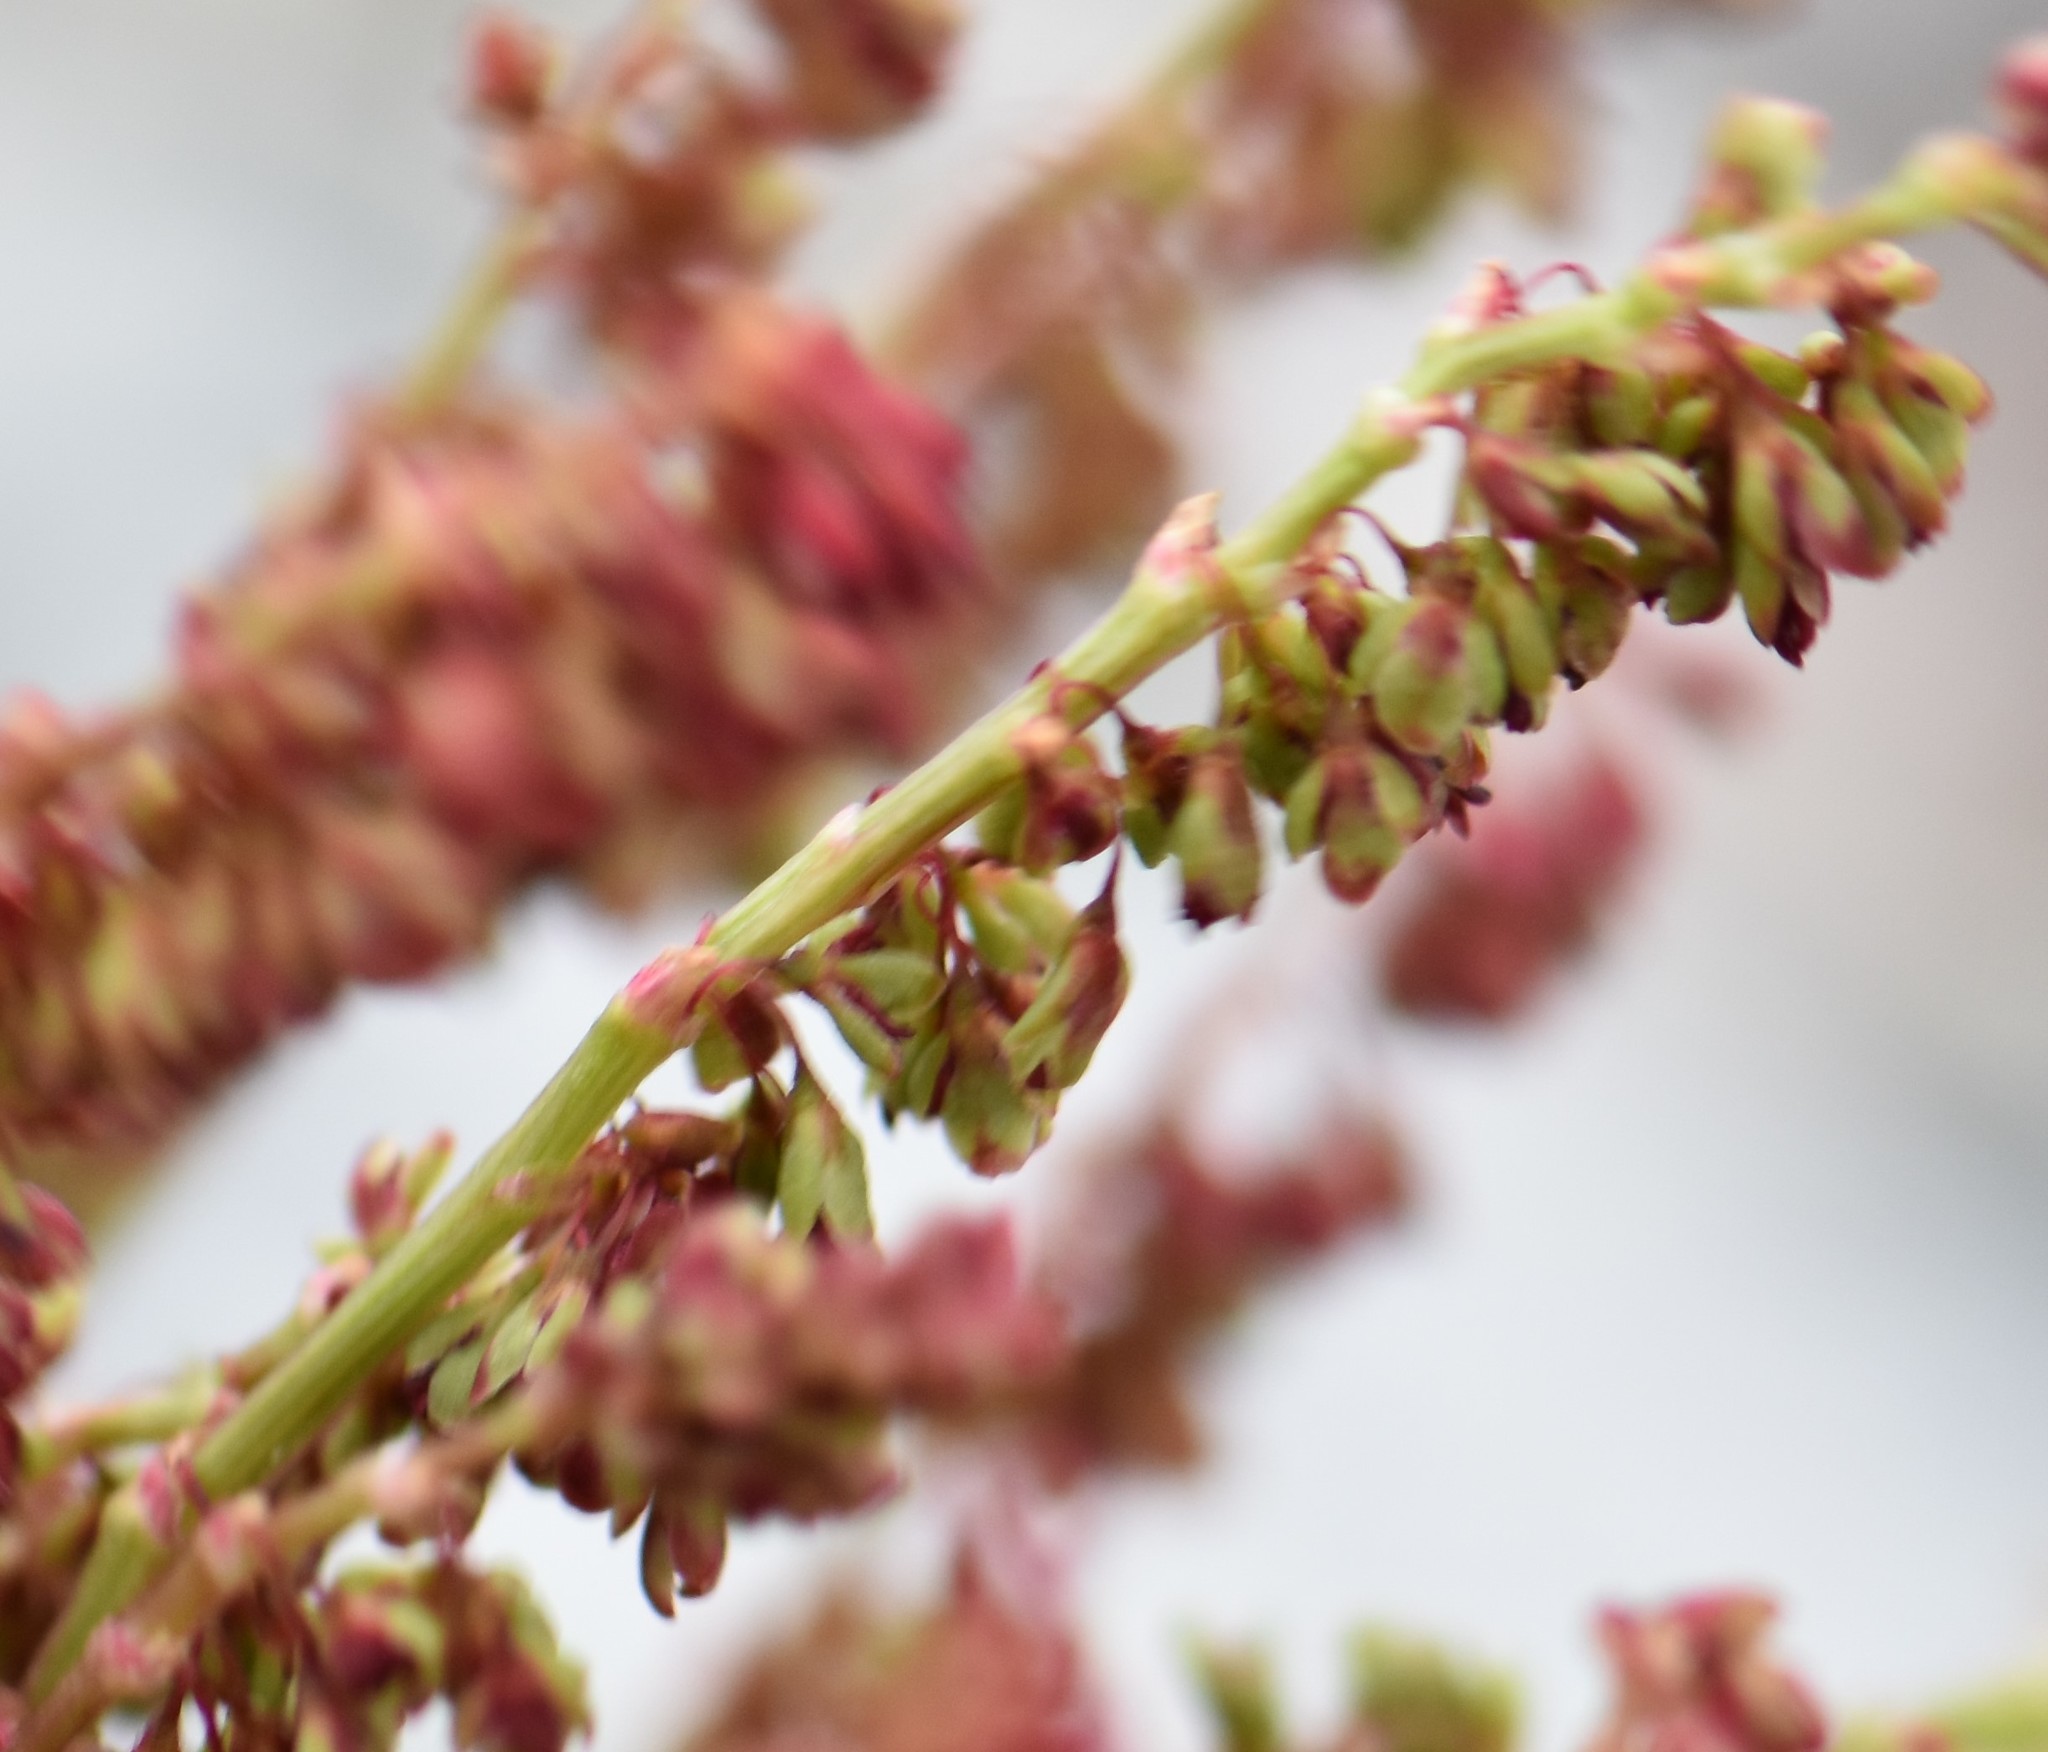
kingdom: Plantae
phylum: Tracheophyta
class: Magnoliopsida
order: Caryophyllales
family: Polygonaceae
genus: Oxyria
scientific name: Oxyria digyna
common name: Alpine mountain-sorrel
